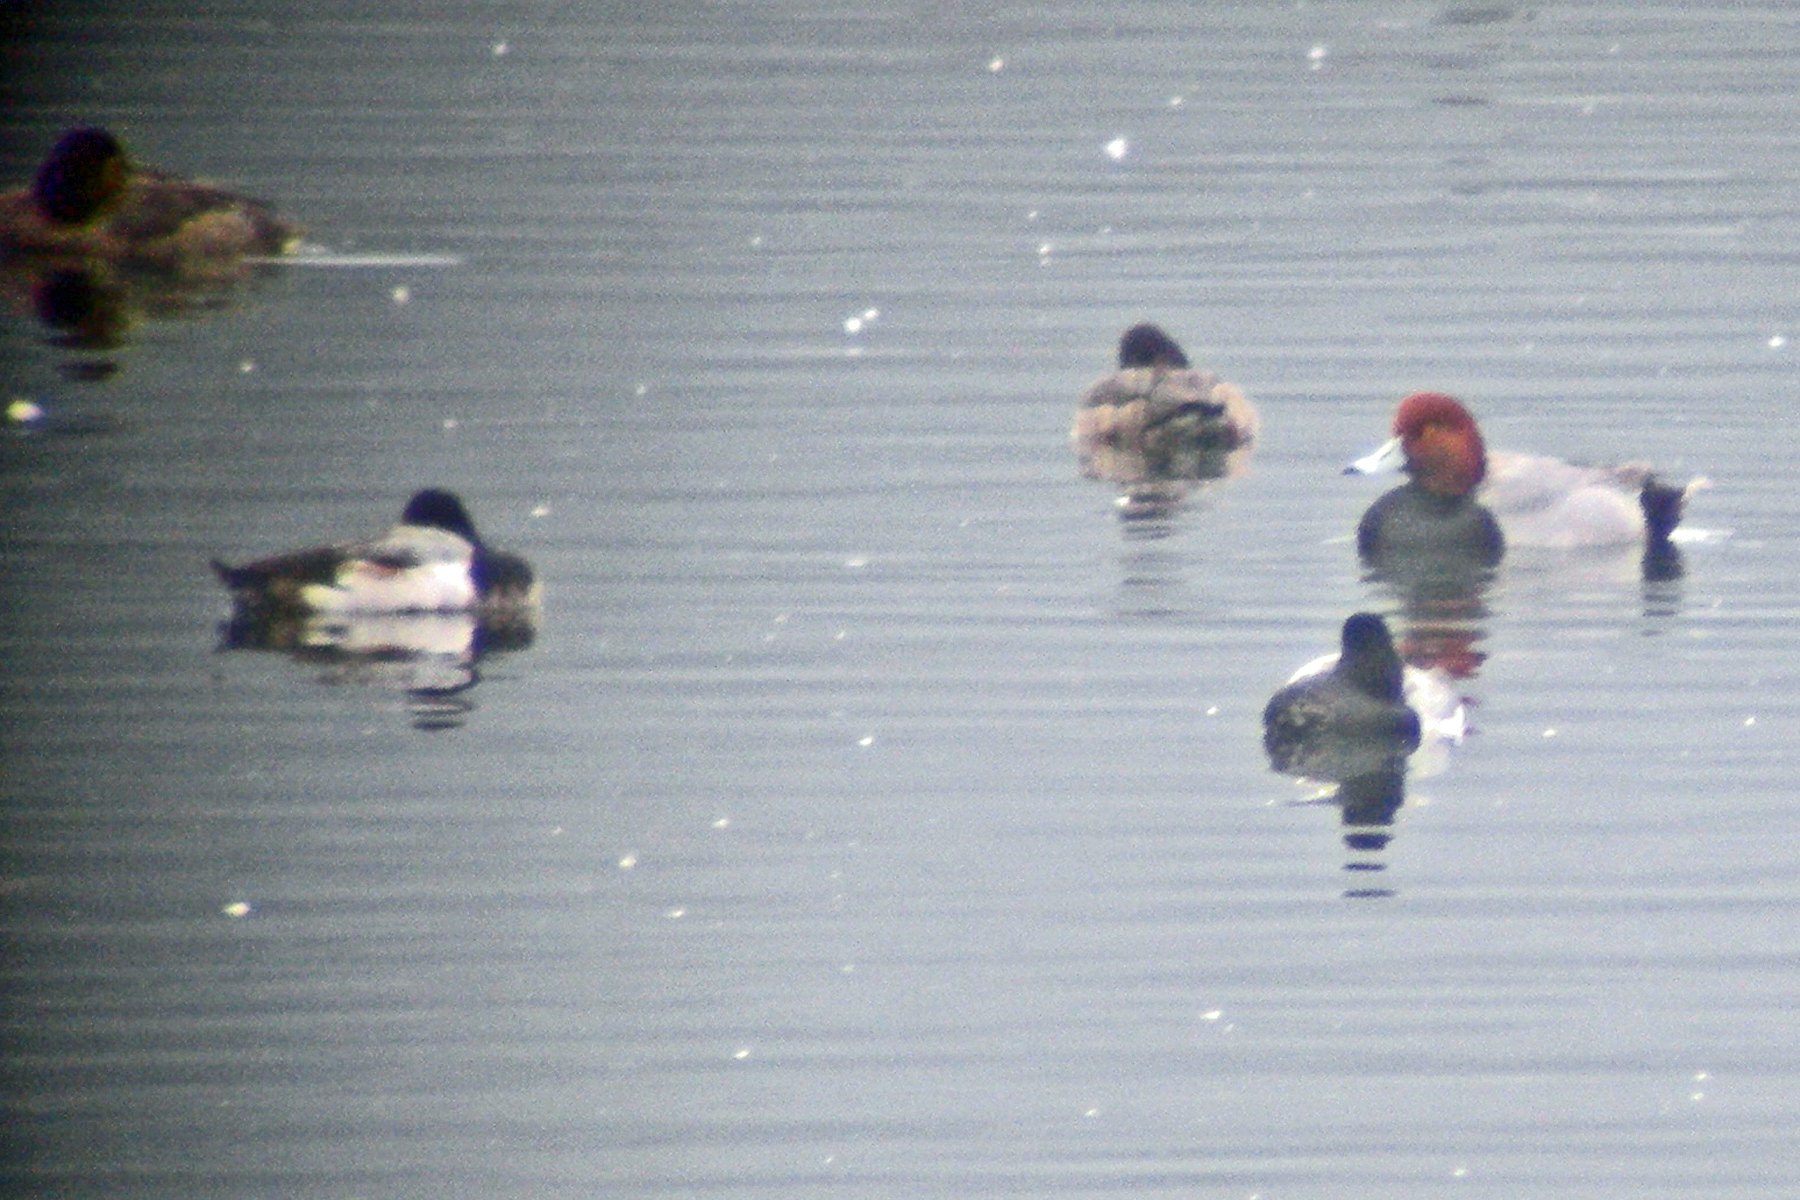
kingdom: Animalia
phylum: Chordata
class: Aves
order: Anseriformes
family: Anatidae
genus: Aythya
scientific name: Aythya affinis
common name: Lesser scaup
